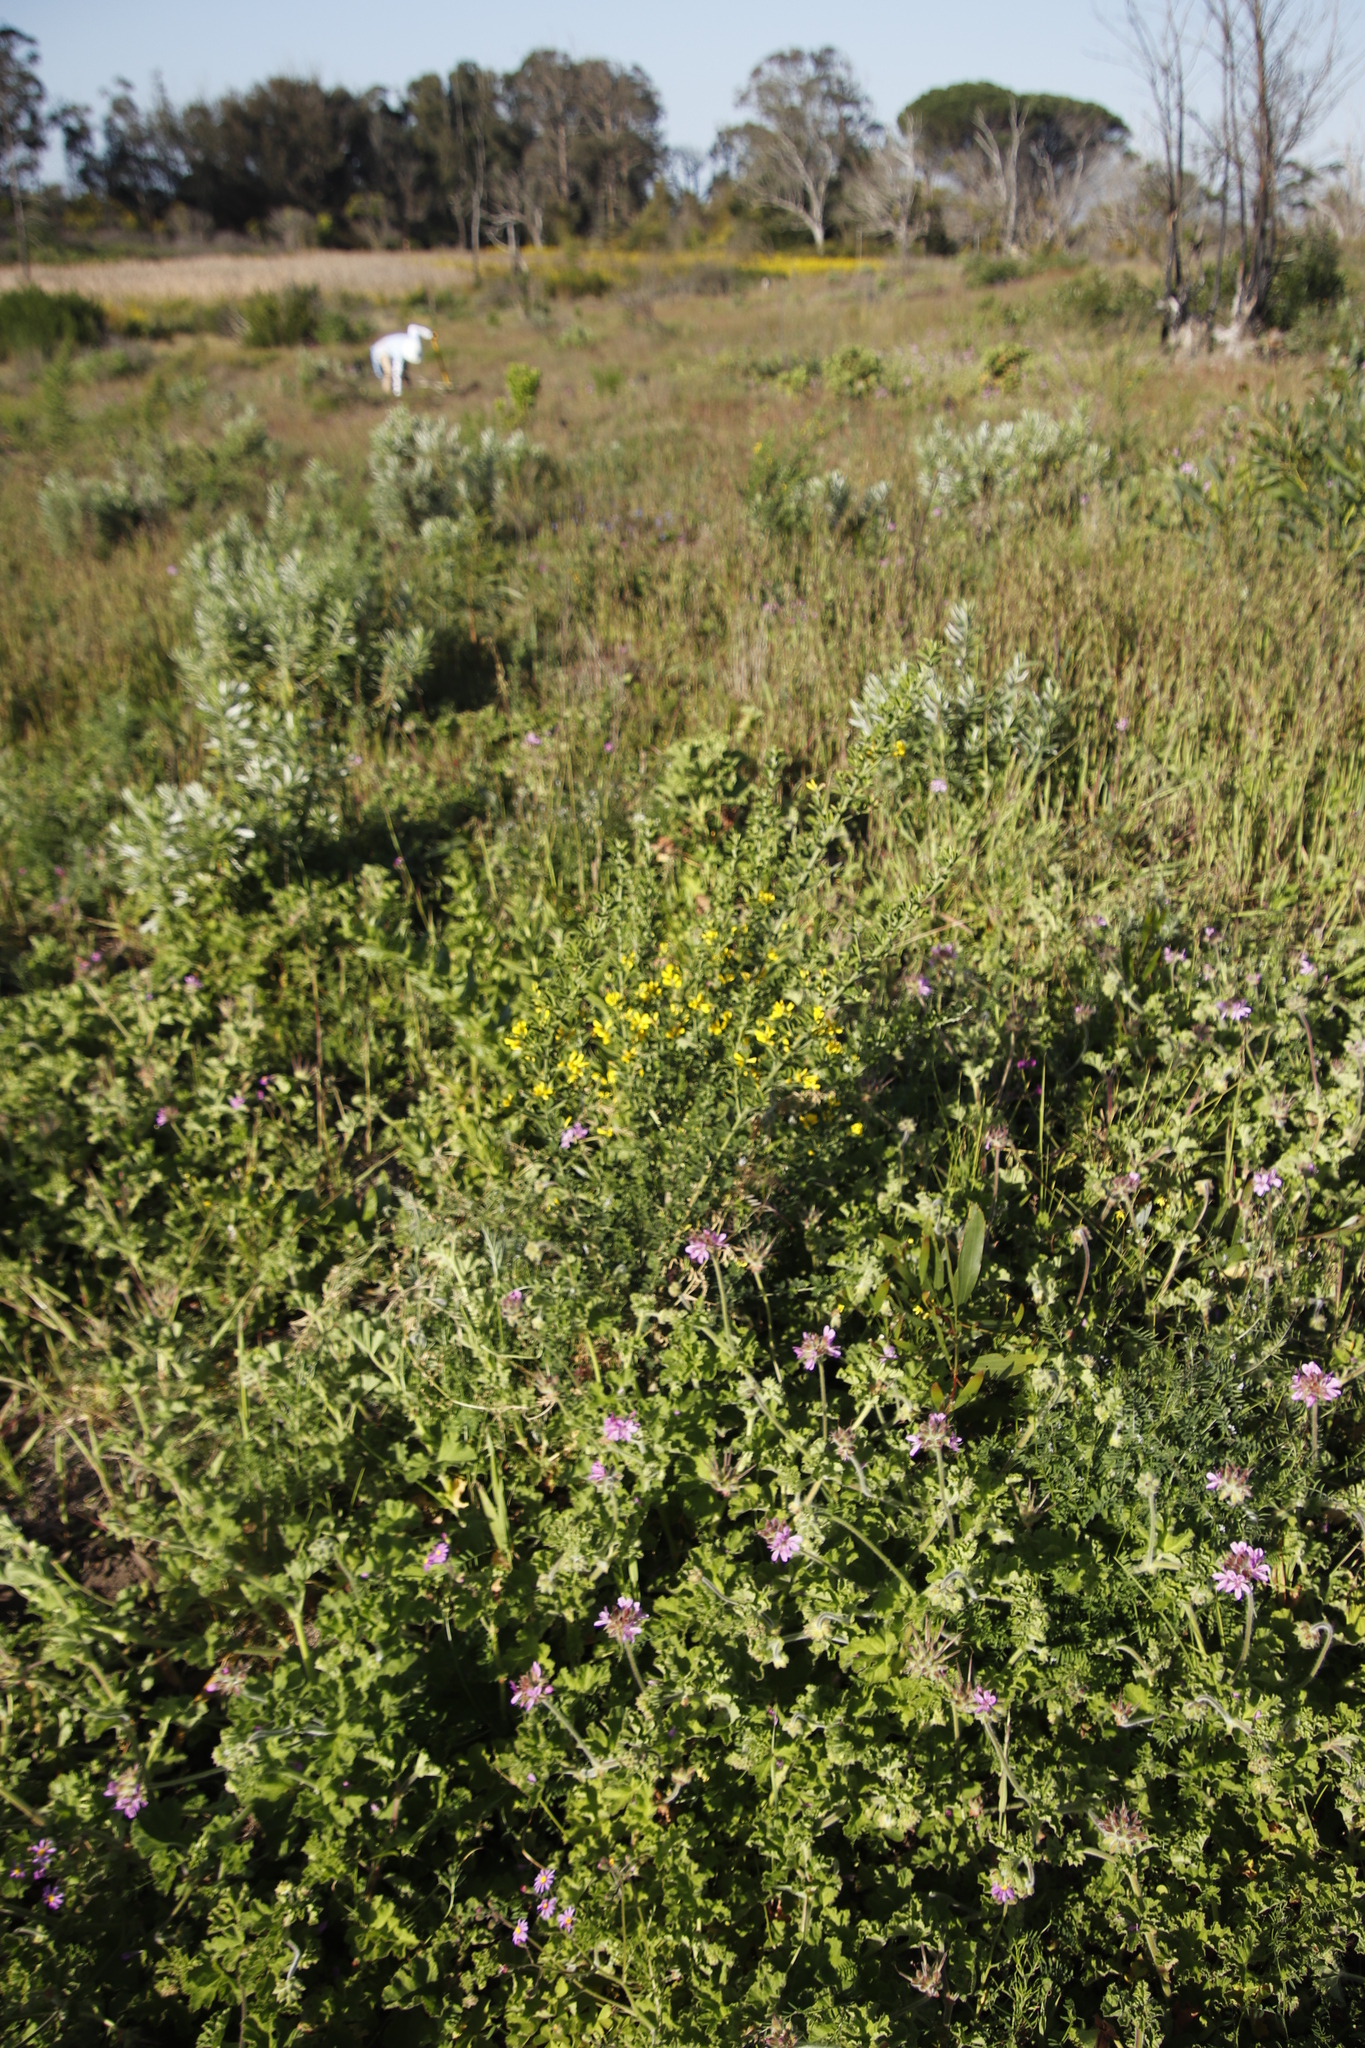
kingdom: Plantae
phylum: Tracheophyta
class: Magnoliopsida
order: Fabales
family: Fabaceae
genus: Genista
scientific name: Genista monspessulana
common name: Montpellier broom
